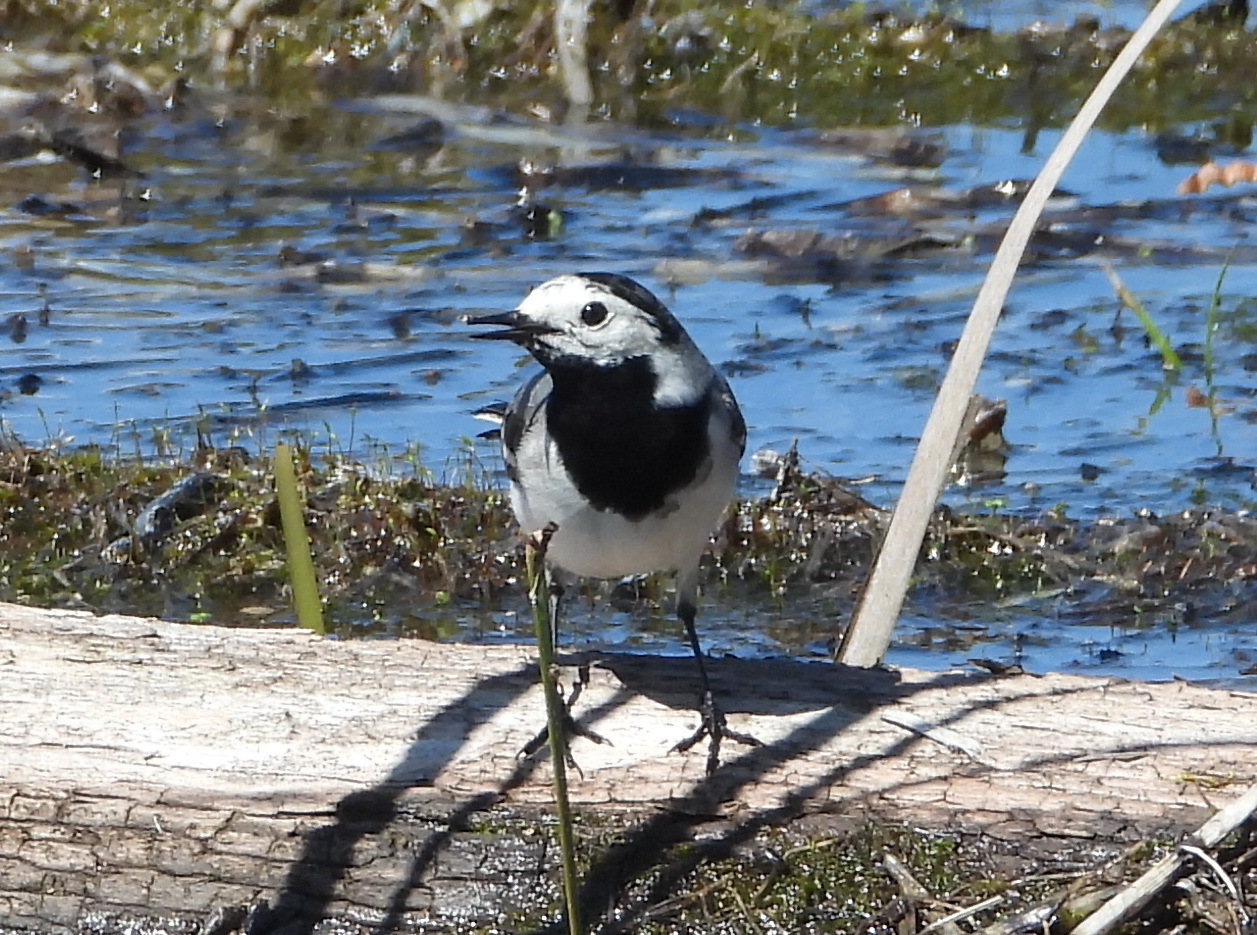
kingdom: Animalia
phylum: Chordata
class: Aves
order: Passeriformes
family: Motacillidae
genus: Motacilla
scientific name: Motacilla alba
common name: White wagtail
